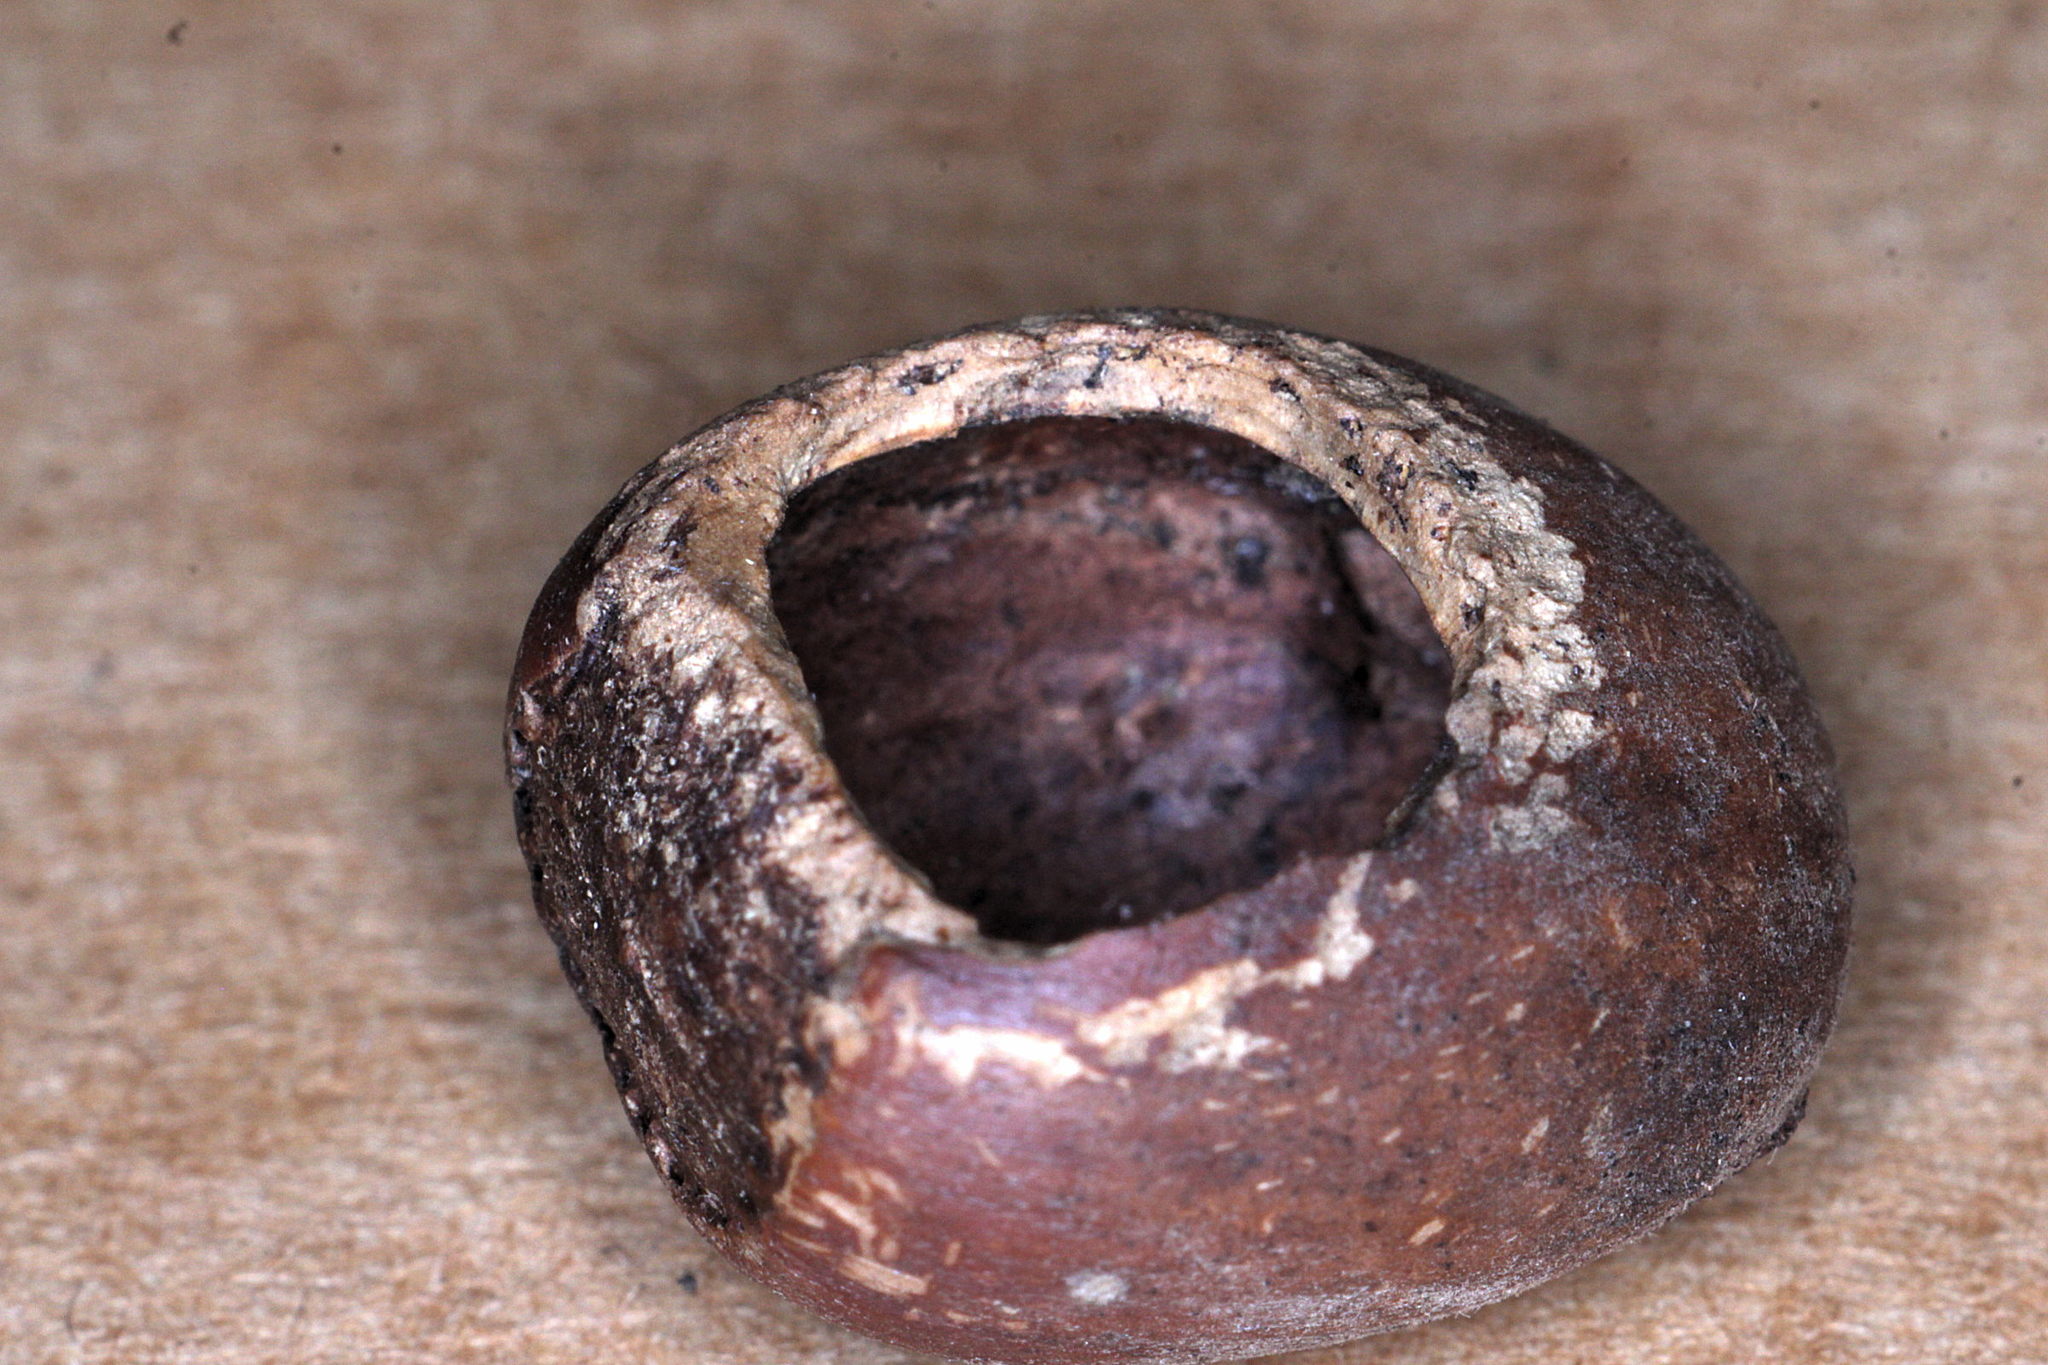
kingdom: Animalia
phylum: Chordata
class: Mammalia
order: Rodentia
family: Gliridae
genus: Muscardinus
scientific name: Muscardinus avellanarius
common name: Hazel dormouse
